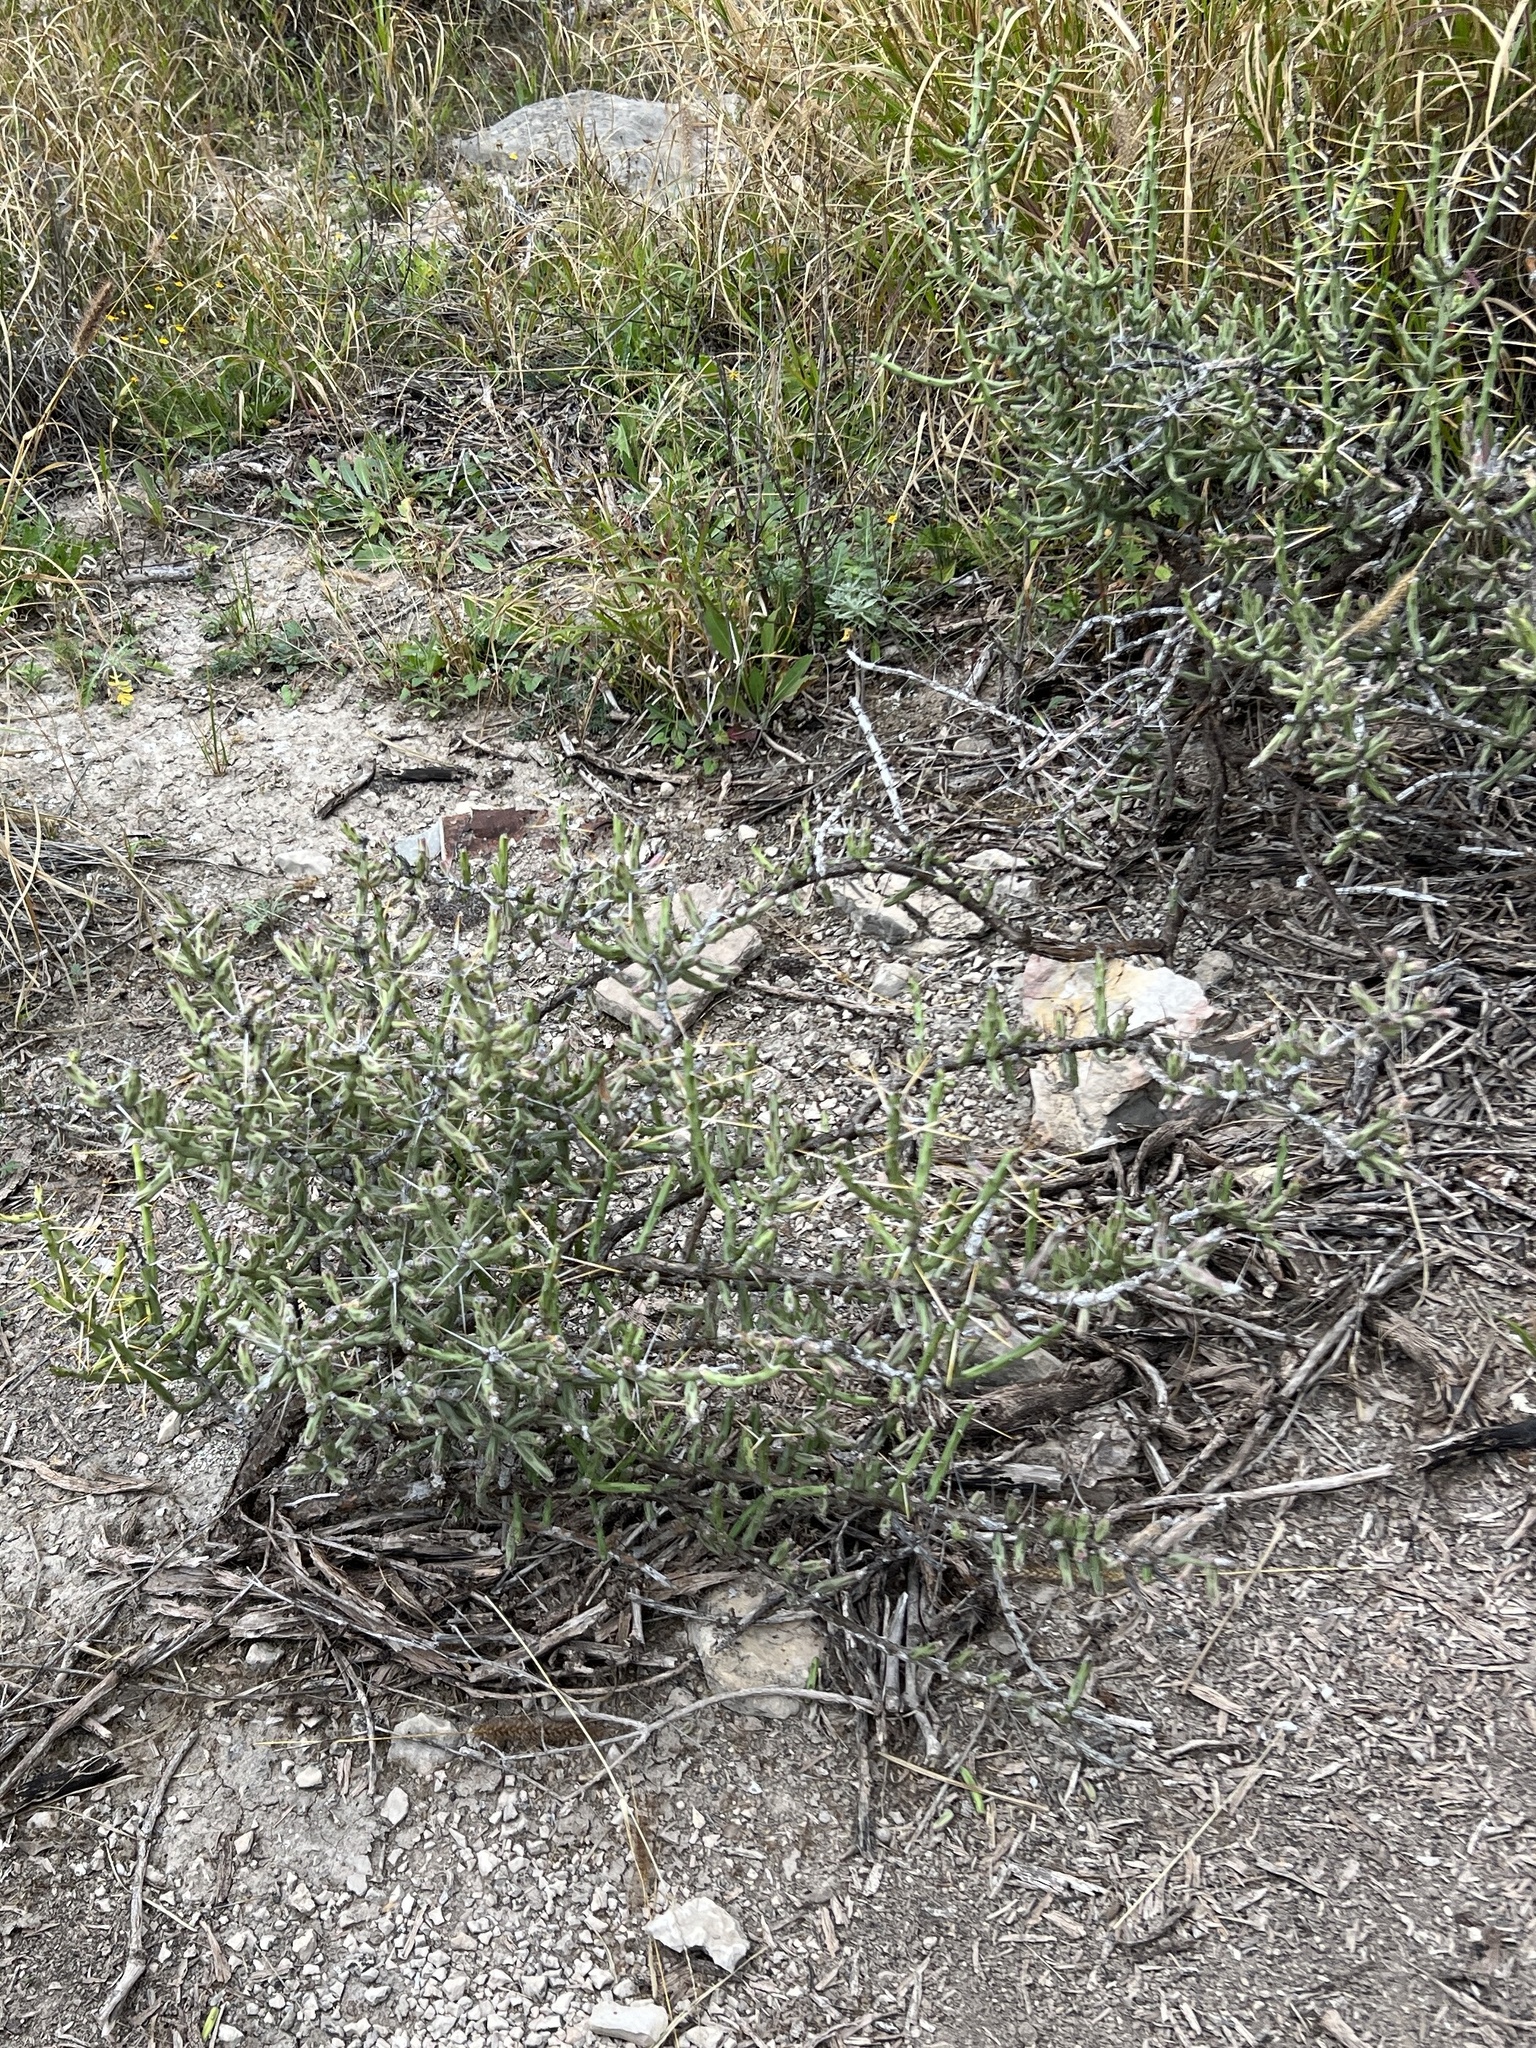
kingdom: Plantae
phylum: Tracheophyta
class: Magnoliopsida
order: Caryophyllales
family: Cactaceae
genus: Cylindropuntia
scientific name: Cylindropuntia leptocaulis
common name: Christmas cactus
